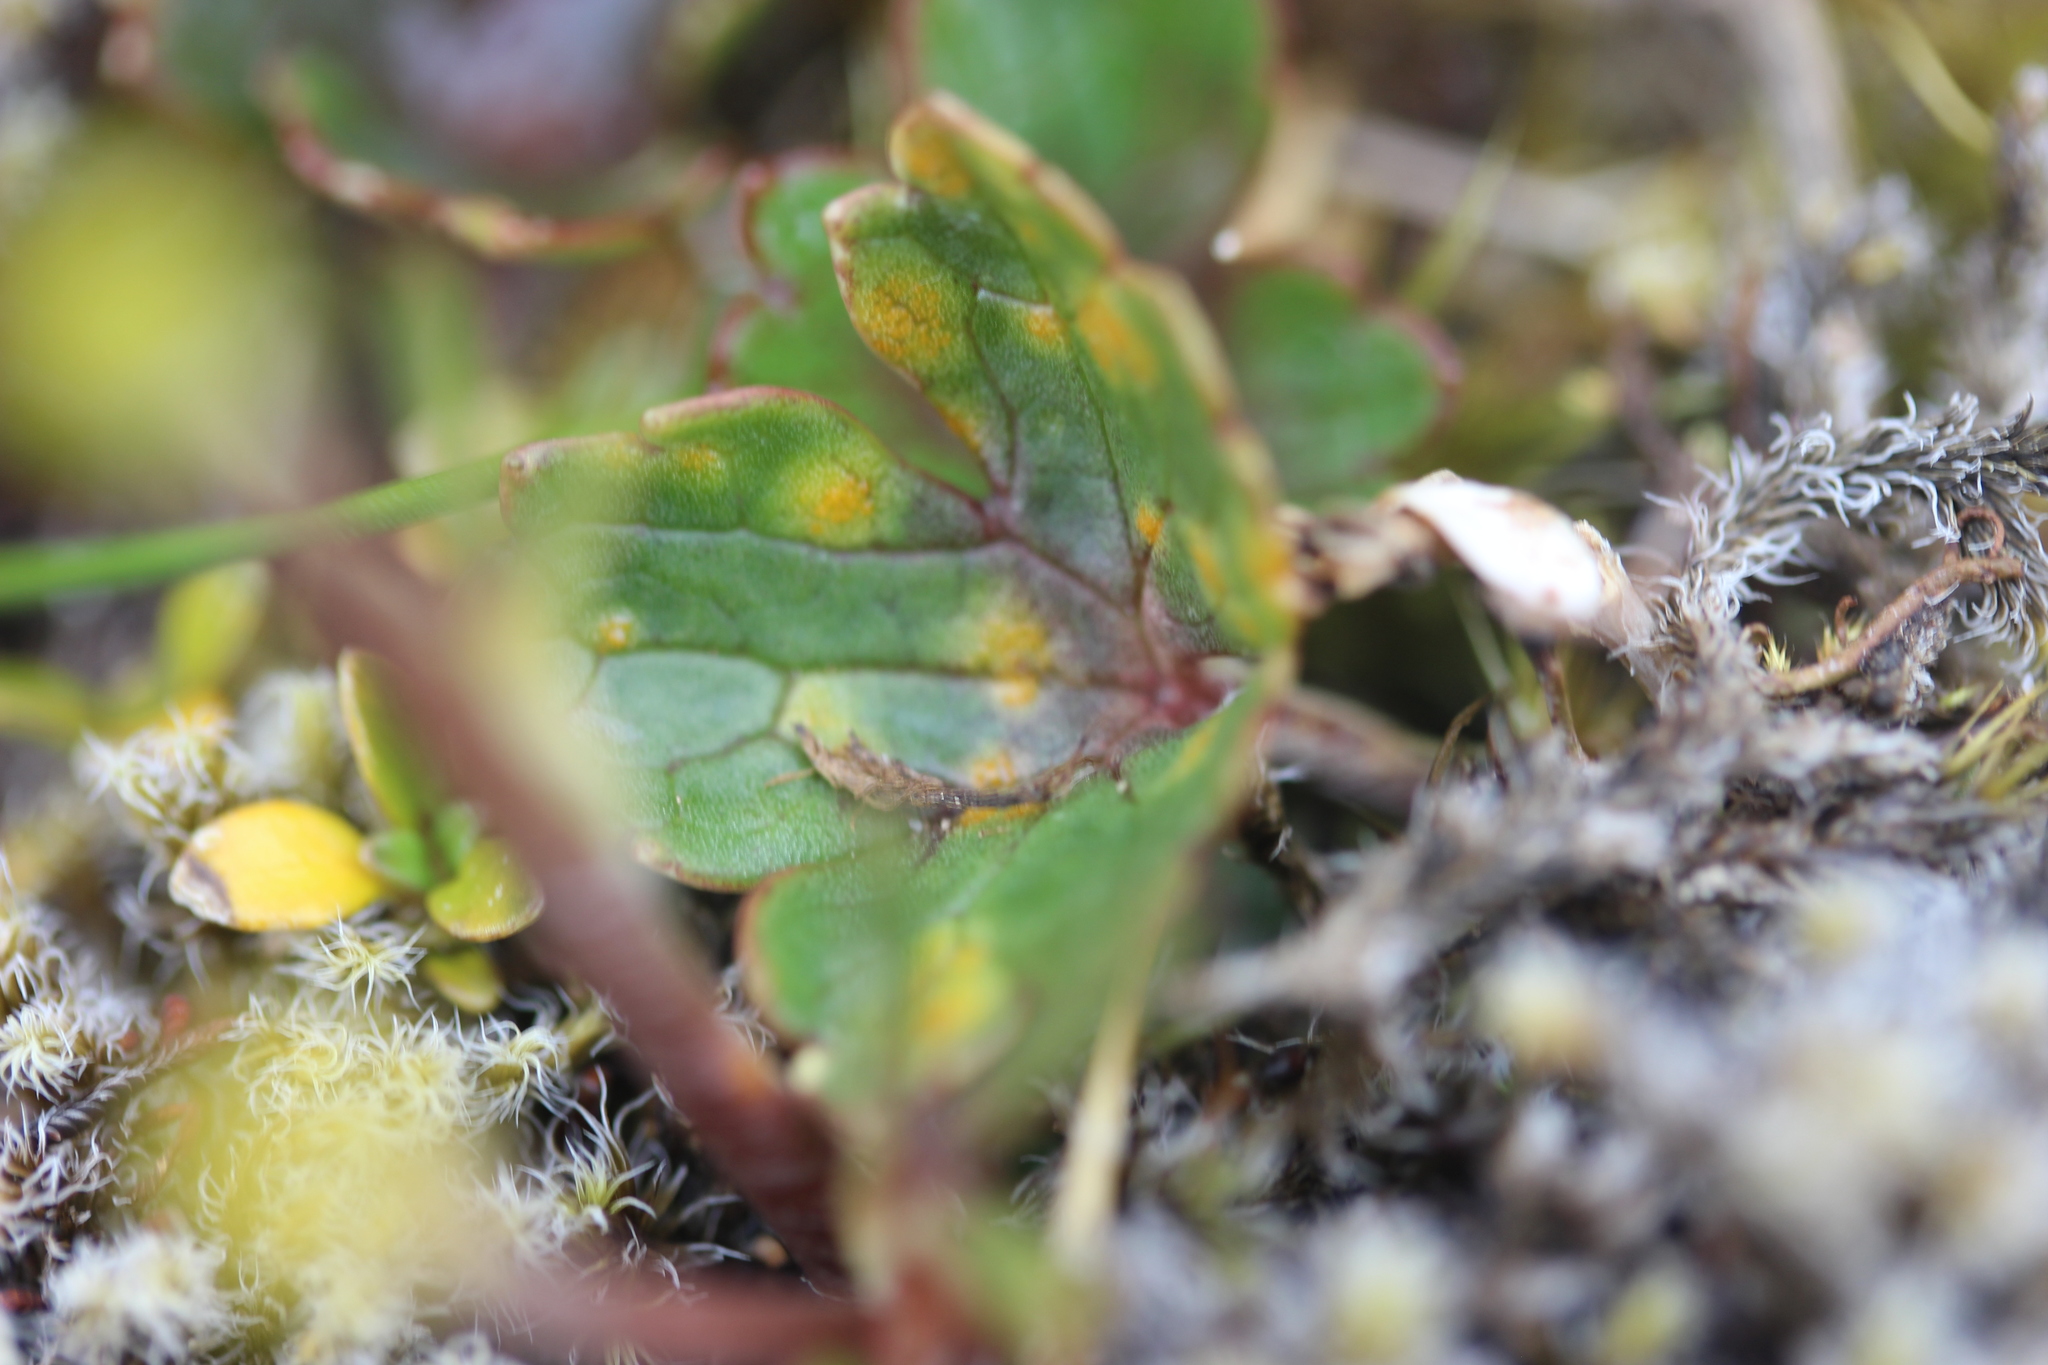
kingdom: Plantae
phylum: Tracheophyta
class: Magnoliopsida
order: Ranunculales
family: Ranunculaceae
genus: Ranunculus
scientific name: Ranunculus verticillatus
